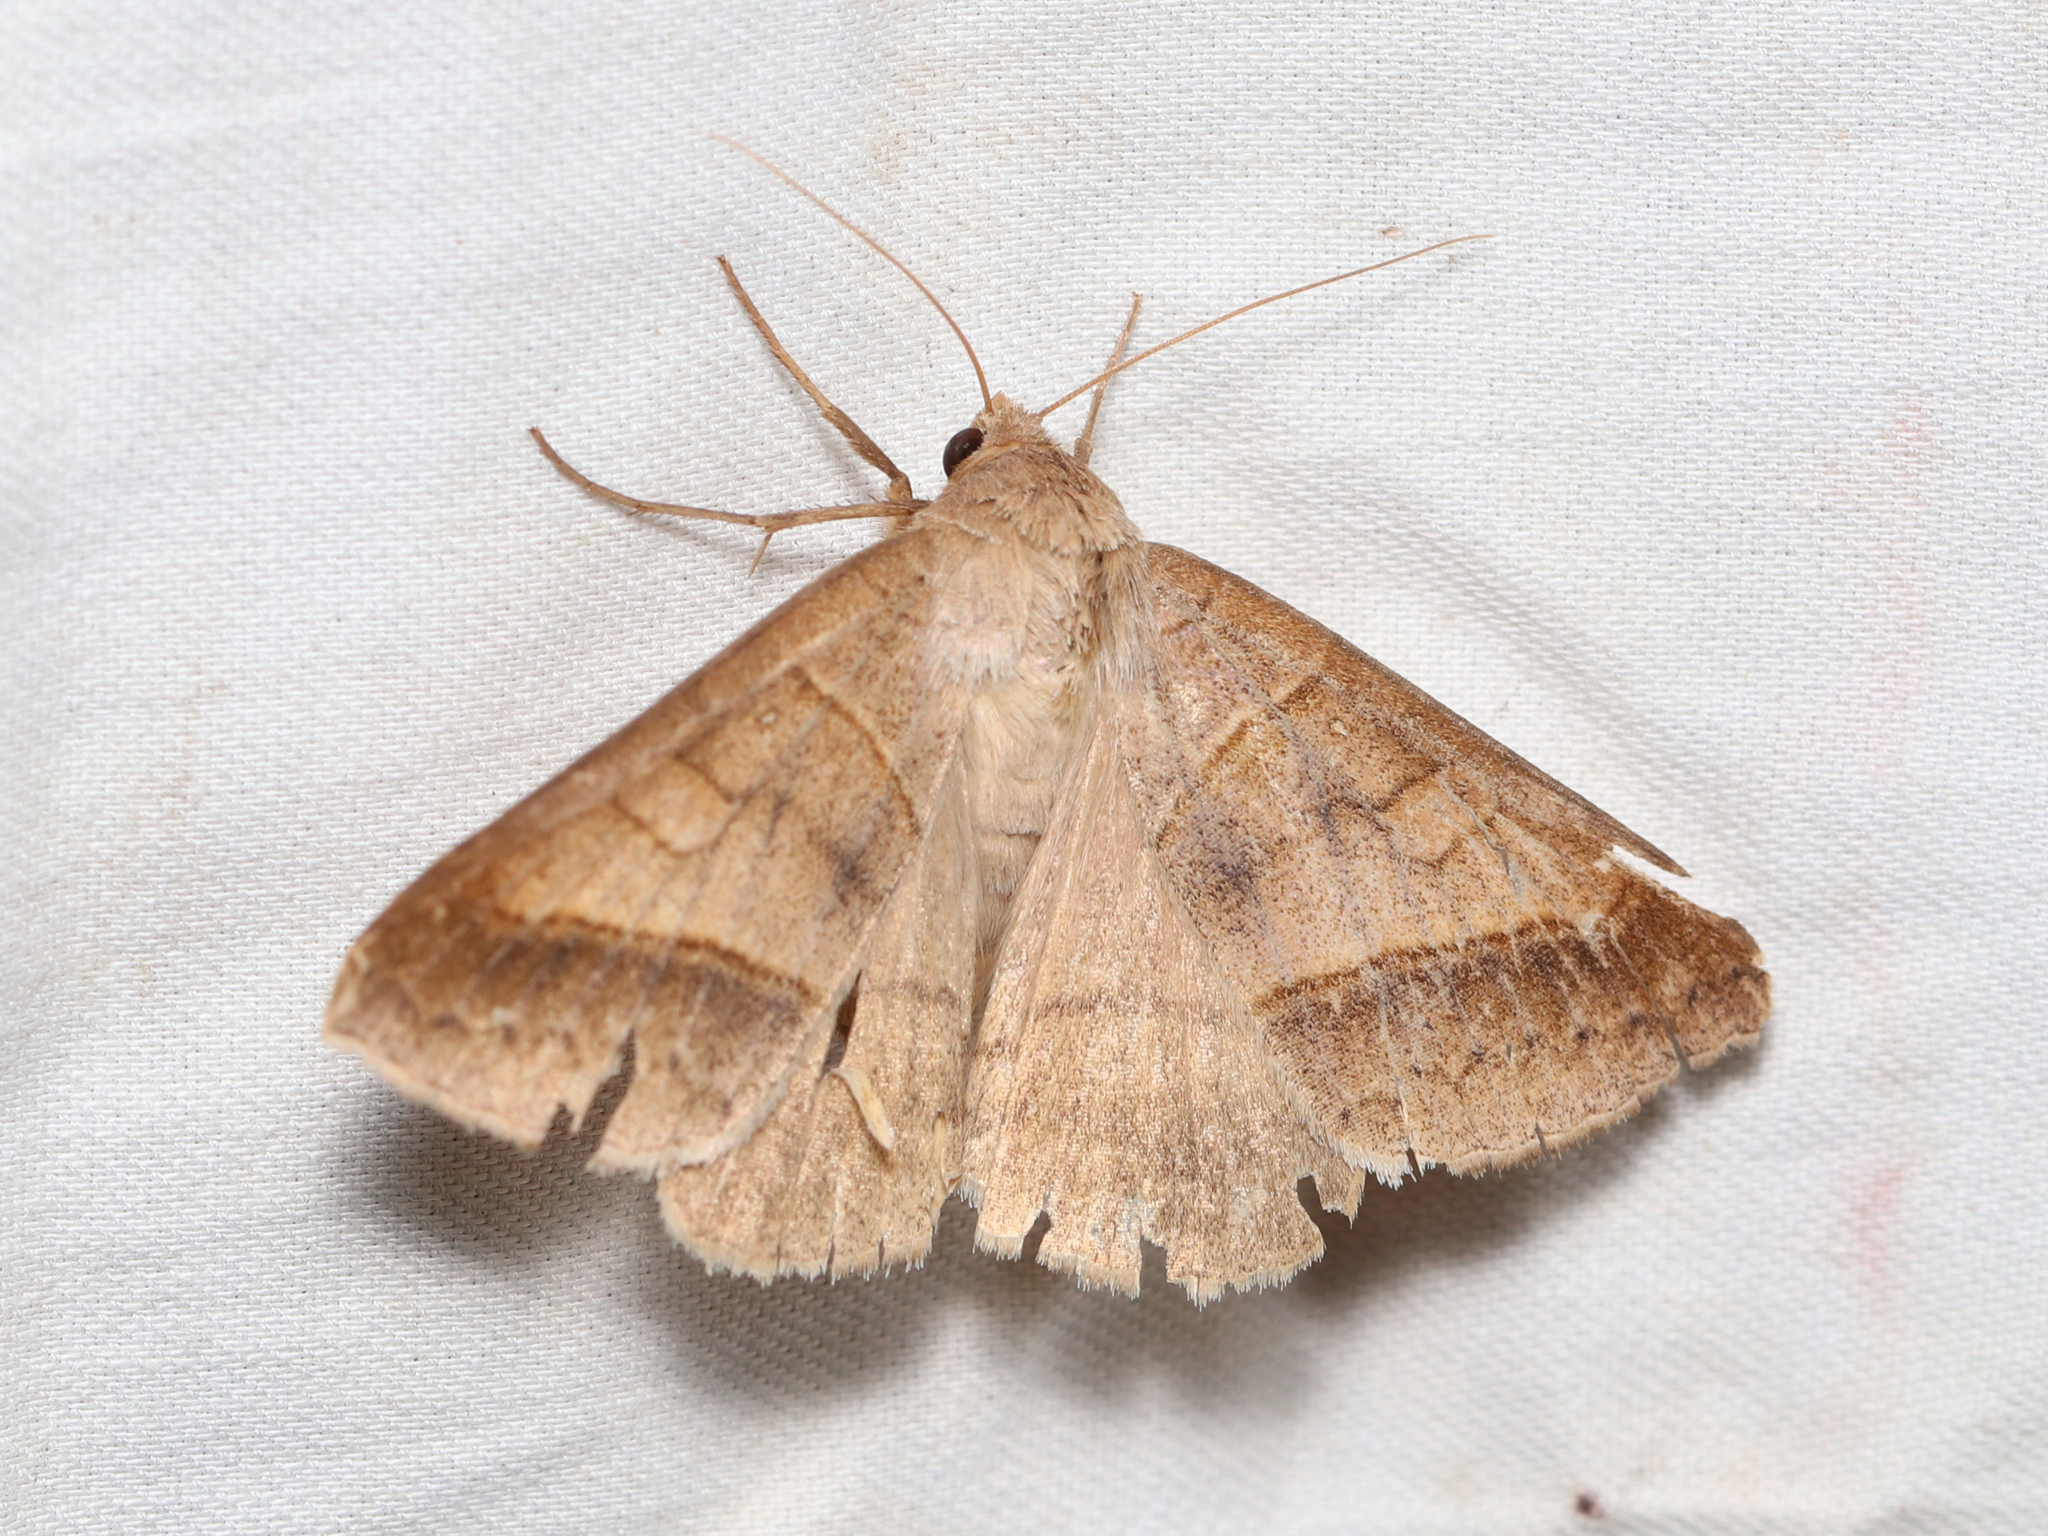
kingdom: Animalia
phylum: Arthropoda
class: Insecta
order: Lepidoptera
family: Erebidae
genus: Mocis
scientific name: Mocis texana
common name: Texas mocis moth
